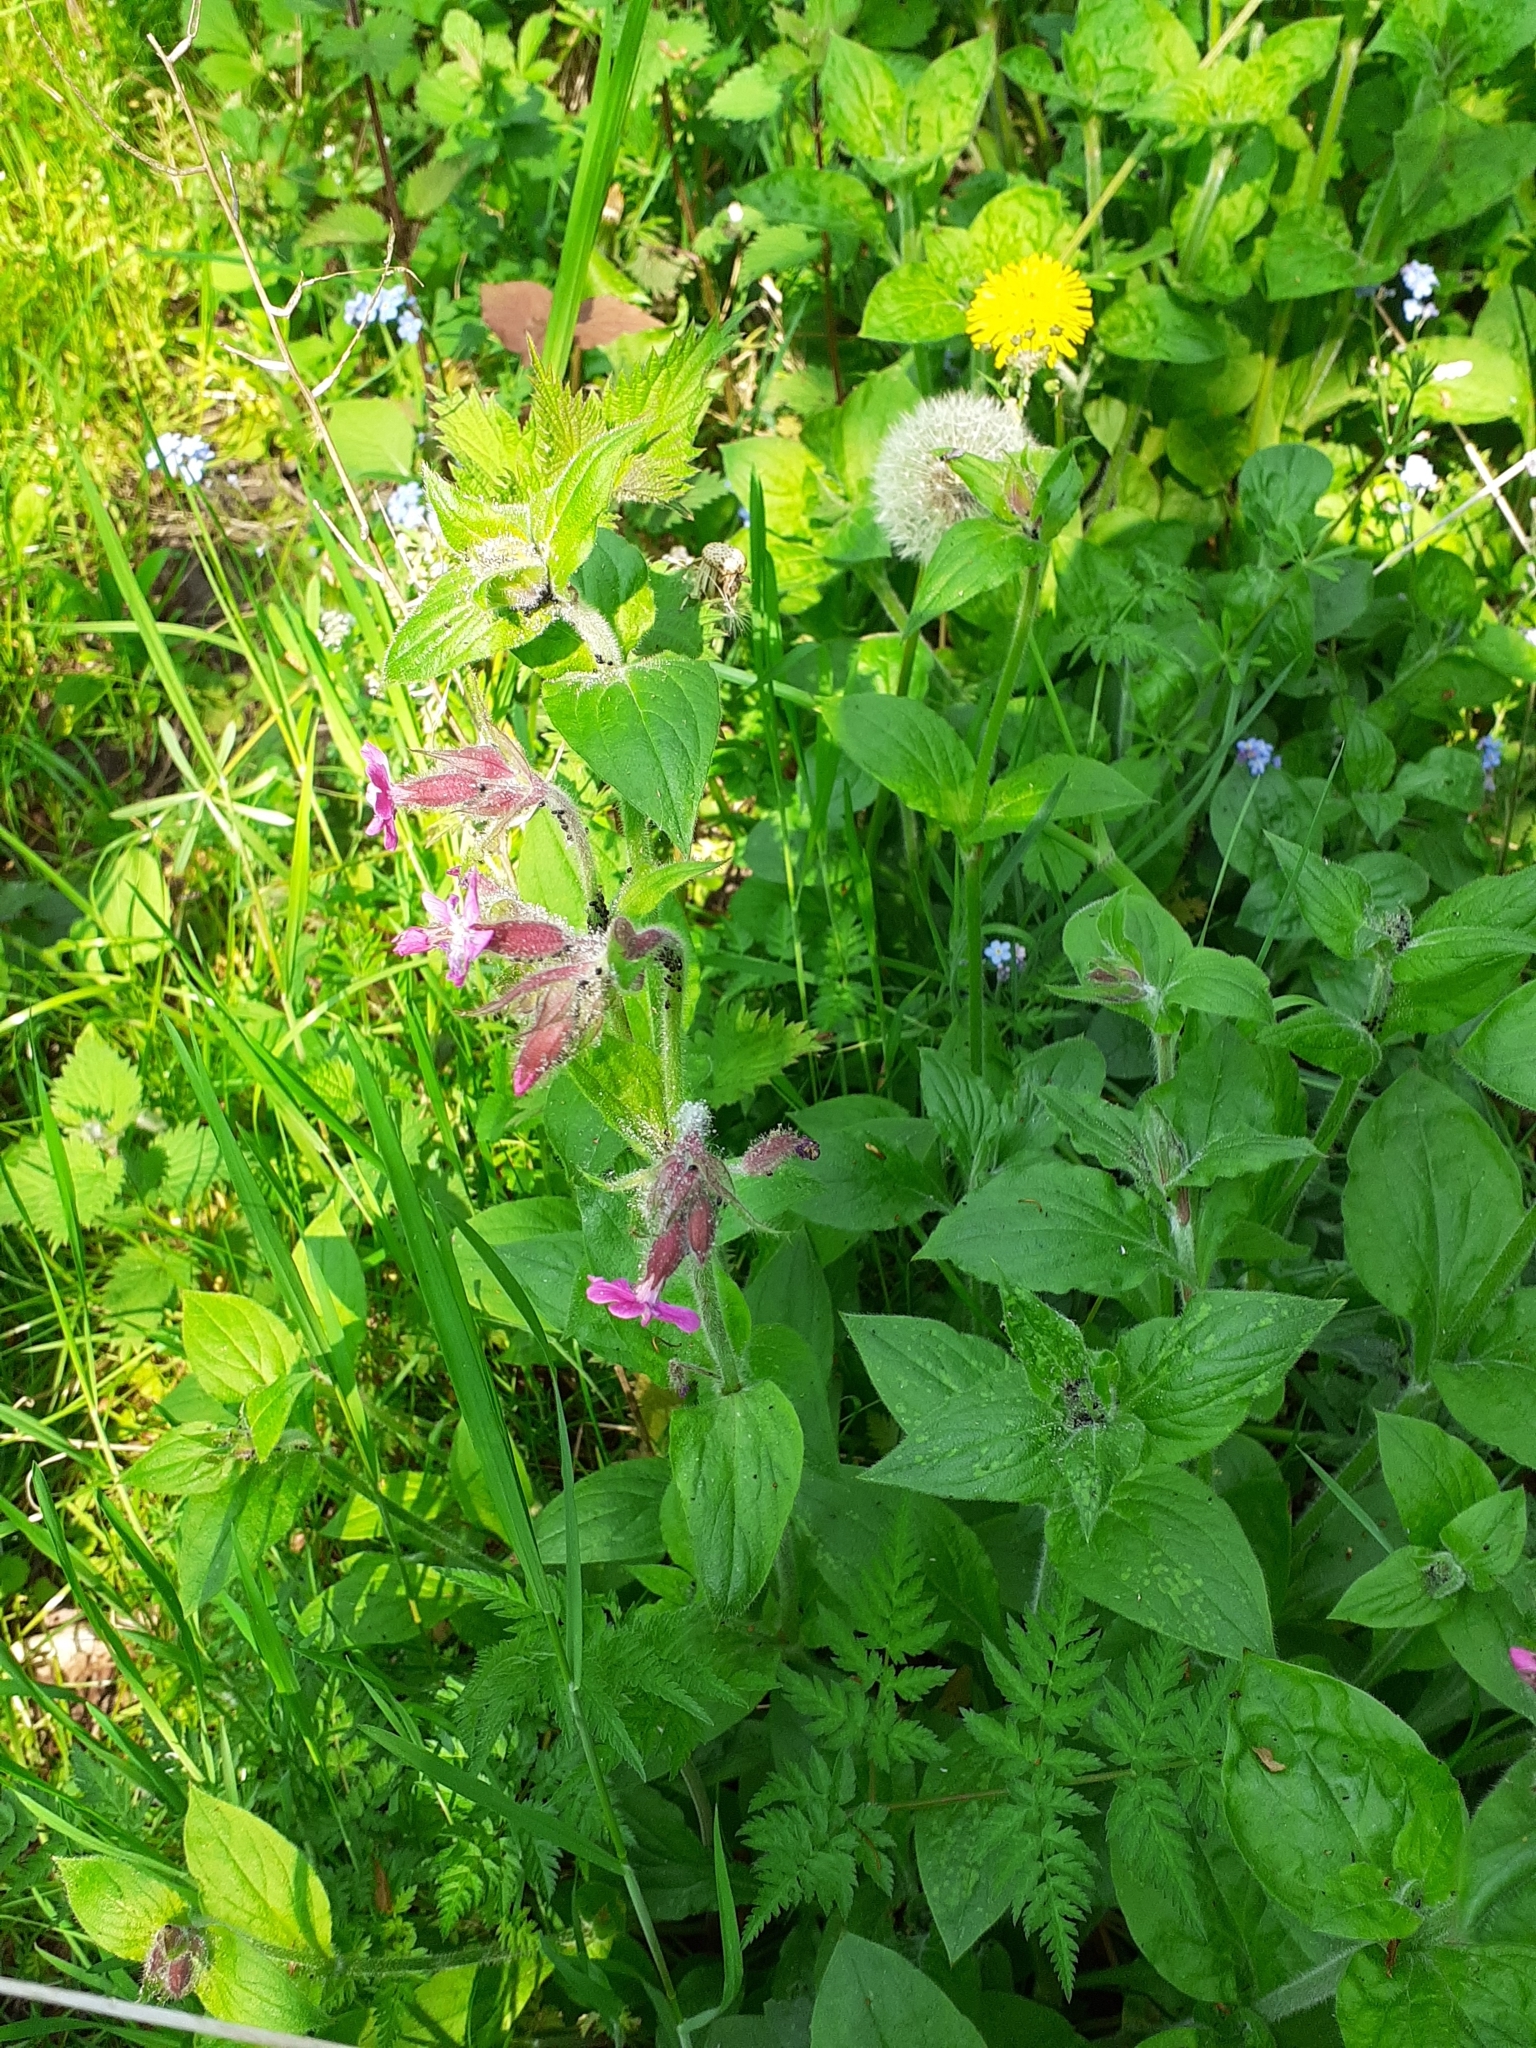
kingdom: Plantae
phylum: Tracheophyta
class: Magnoliopsida
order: Caryophyllales
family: Caryophyllaceae
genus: Silene
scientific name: Silene dioica
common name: Red campion
